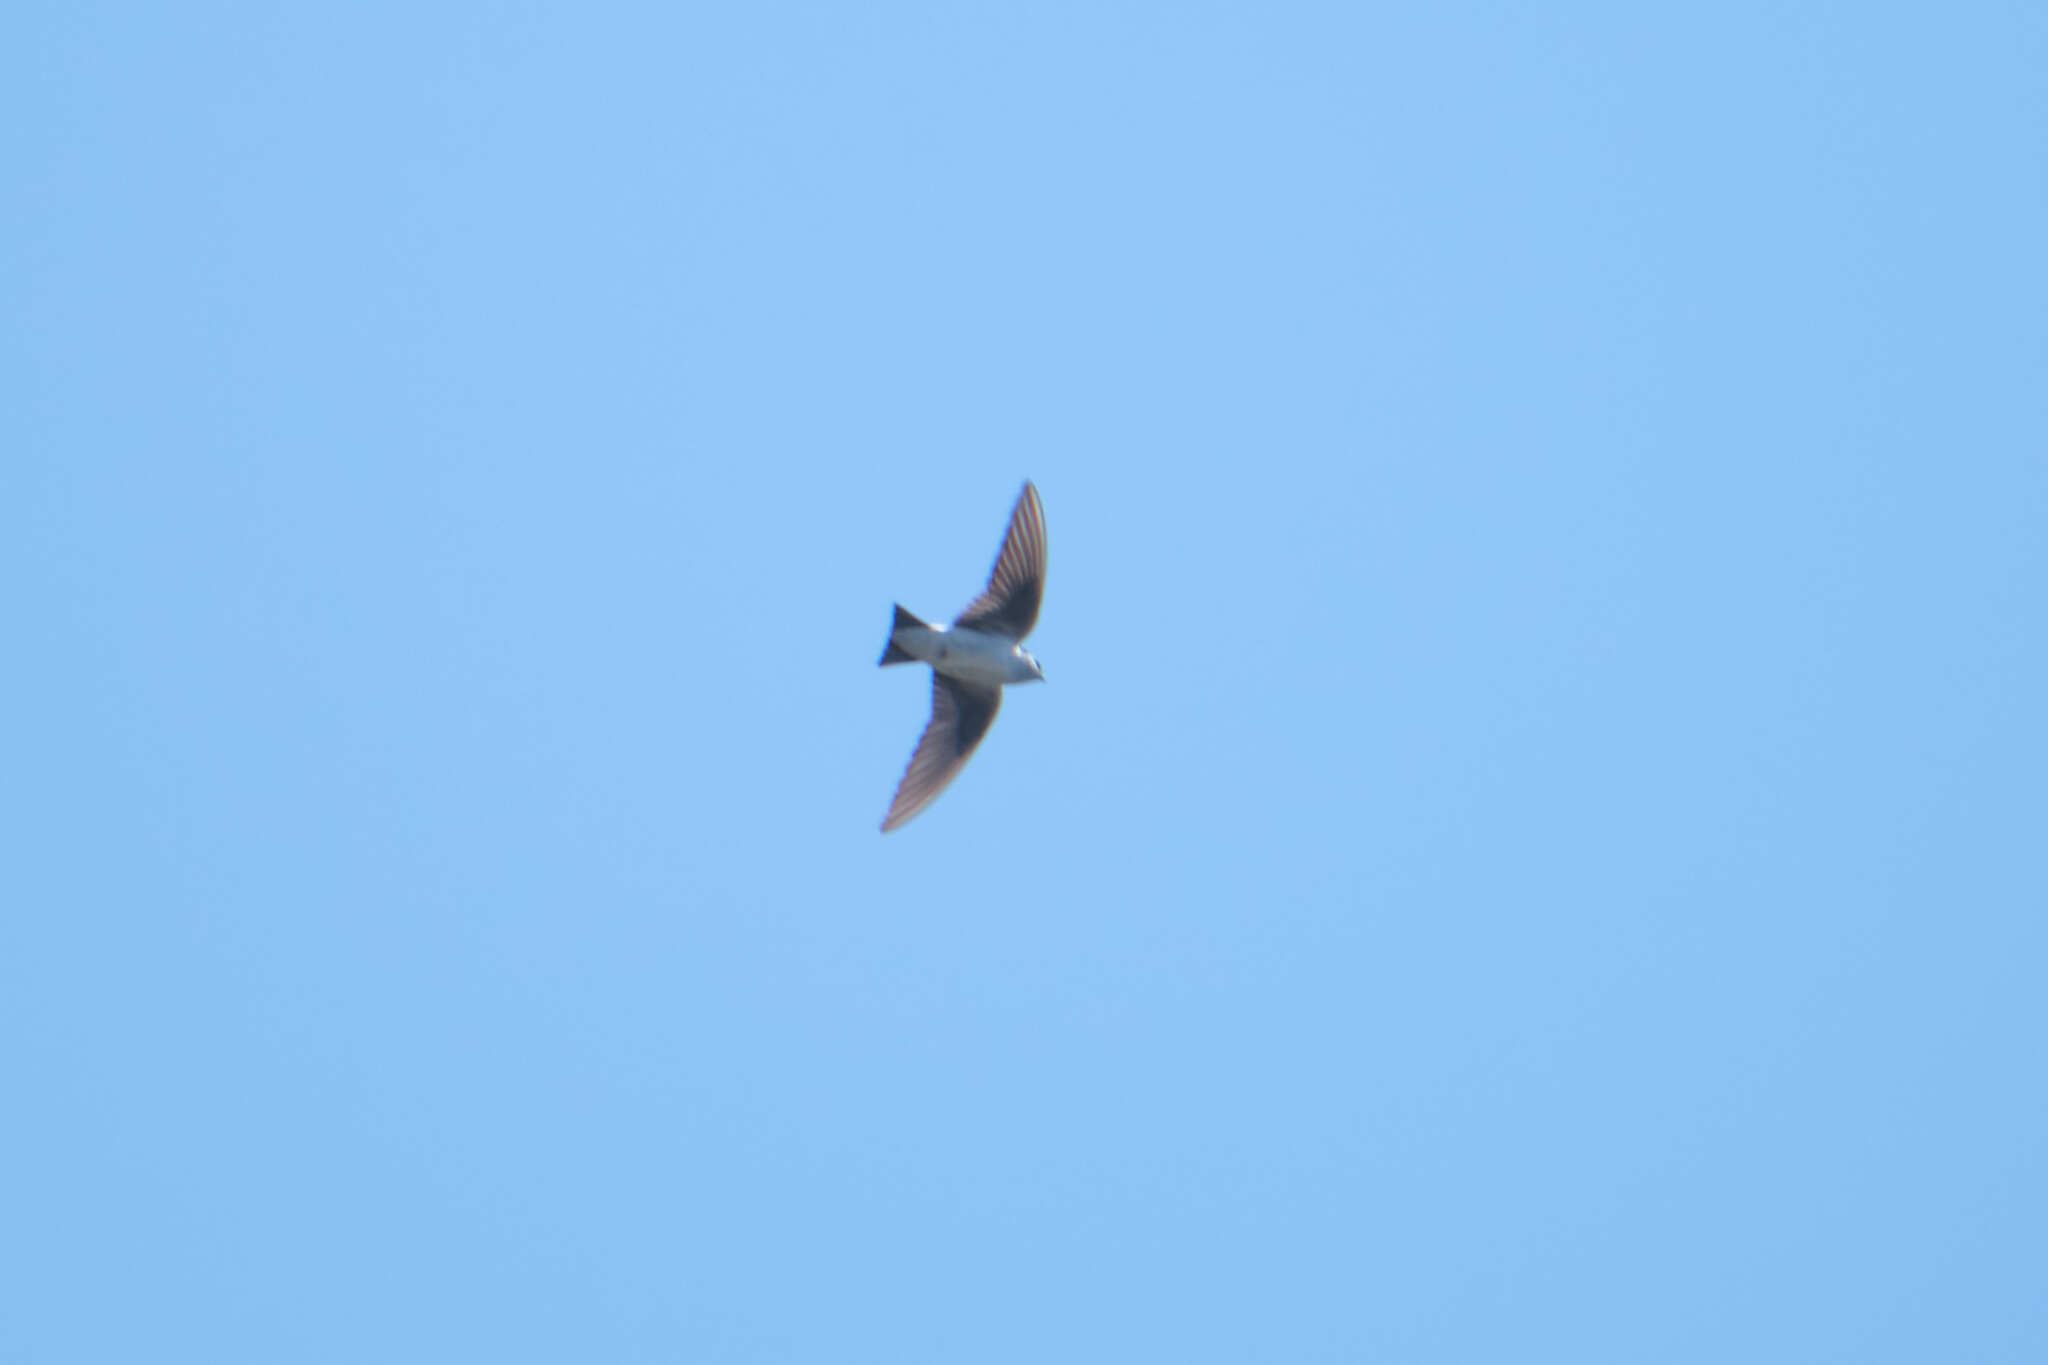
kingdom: Animalia
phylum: Chordata
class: Aves
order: Passeriformes
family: Hirundinidae
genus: Tachycineta
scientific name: Tachycineta thalassina
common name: Violet-green swallow
